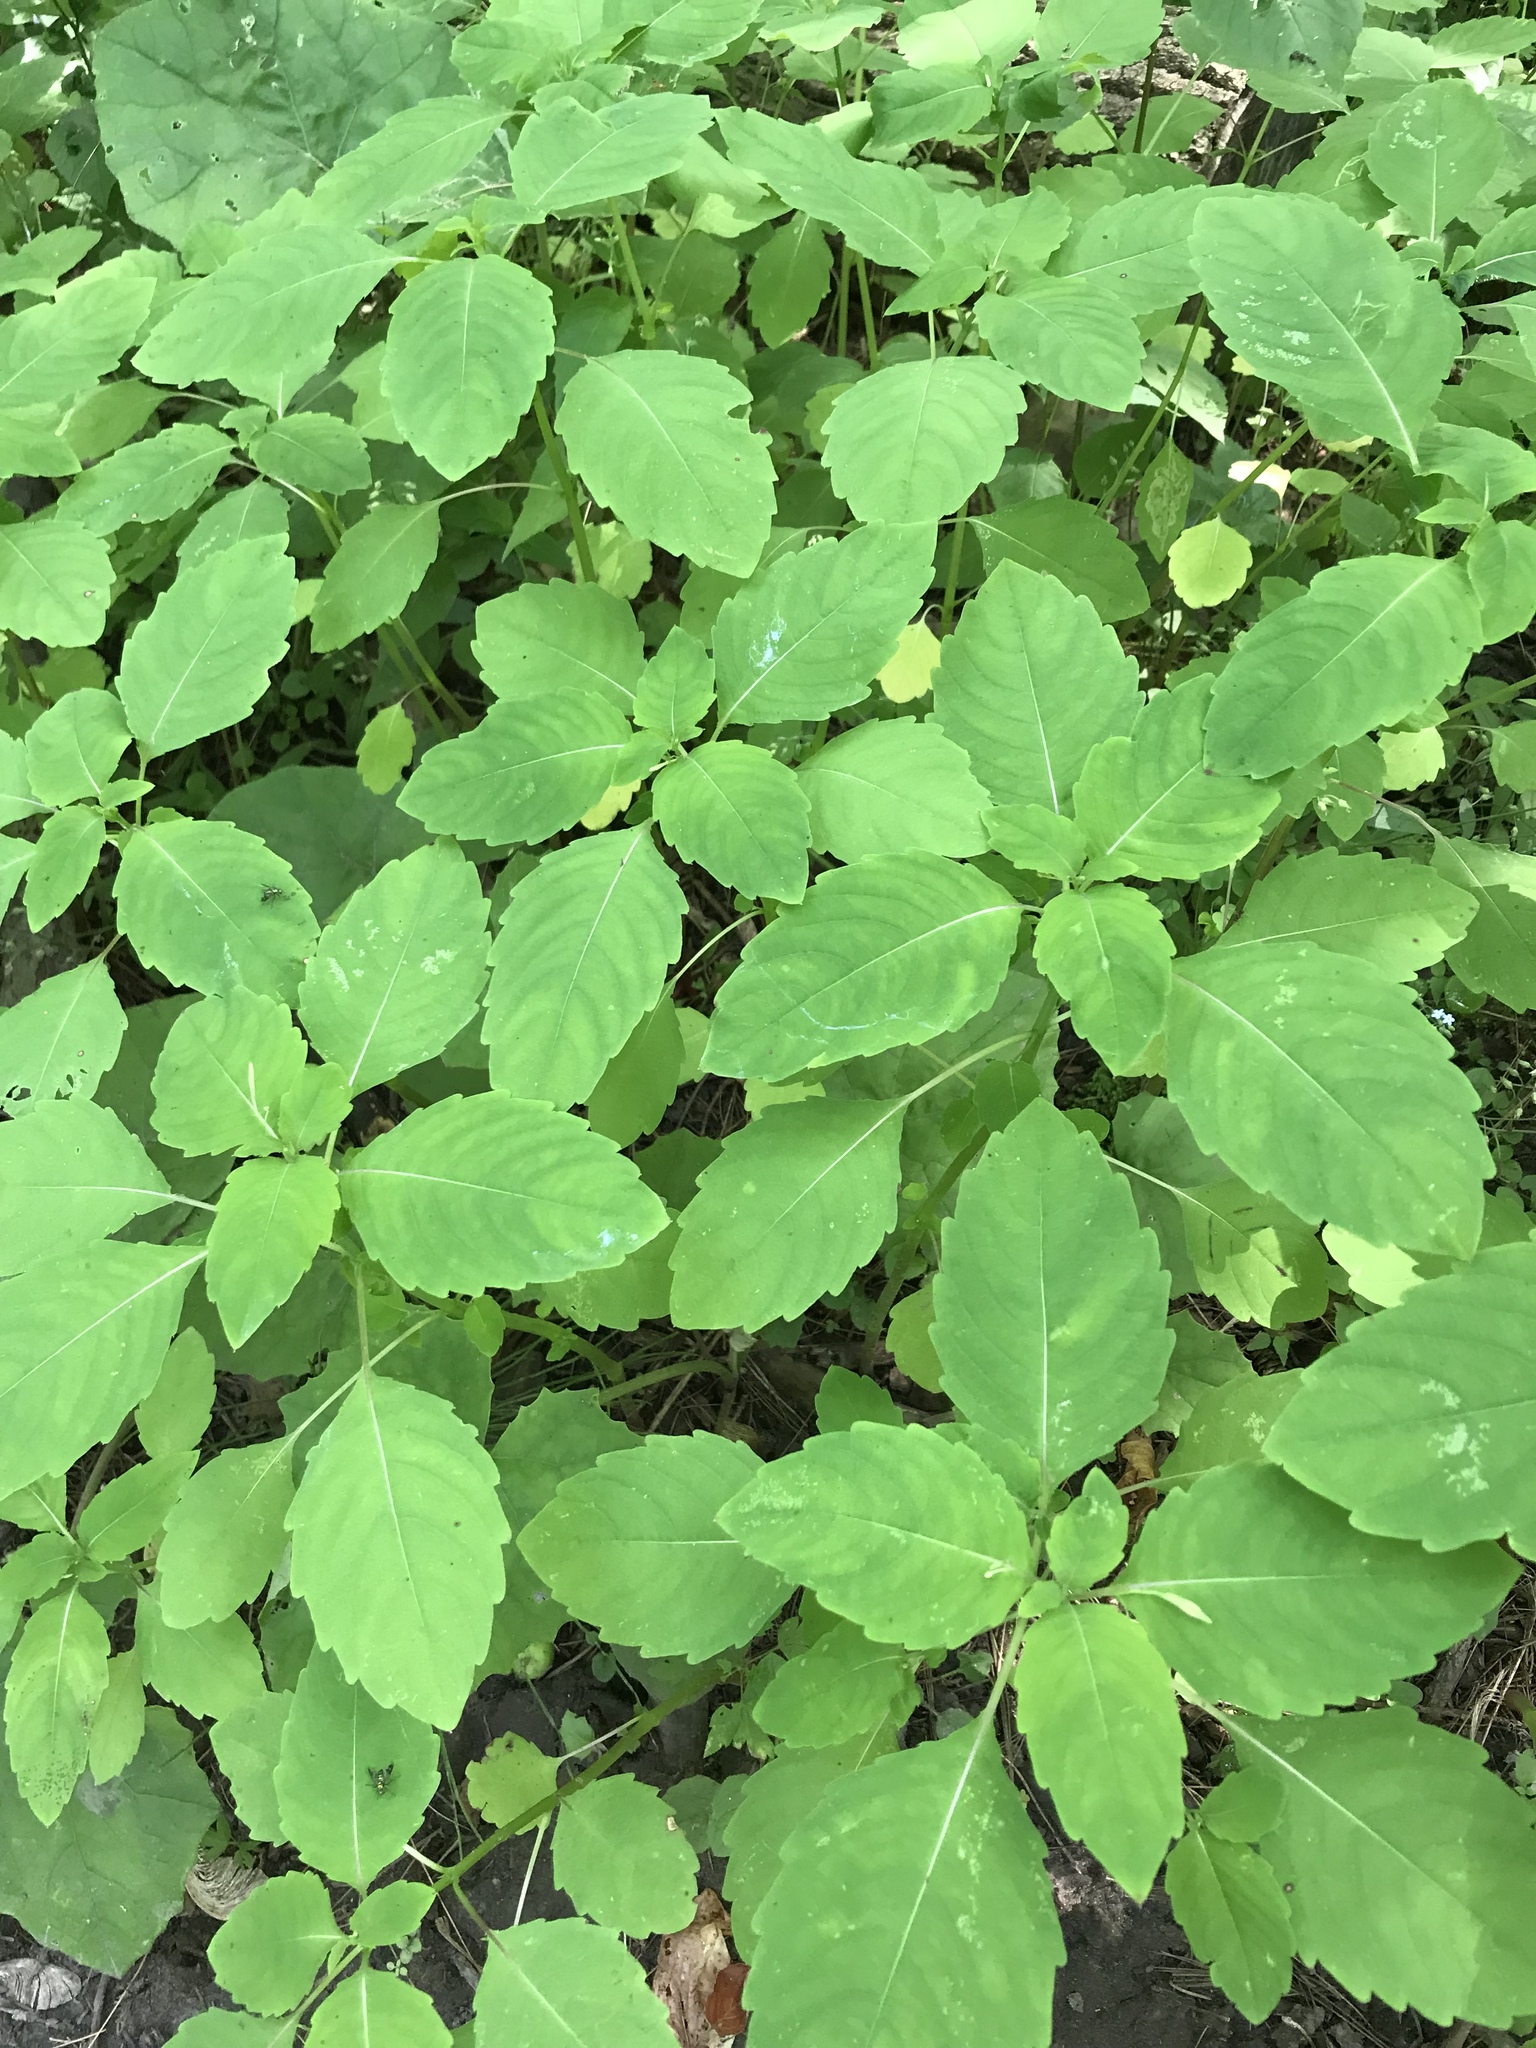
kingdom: Plantae
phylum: Tracheophyta
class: Magnoliopsida
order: Ericales
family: Balsaminaceae
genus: Impatiens
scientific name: Impatiens capensis
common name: Orange balsam
